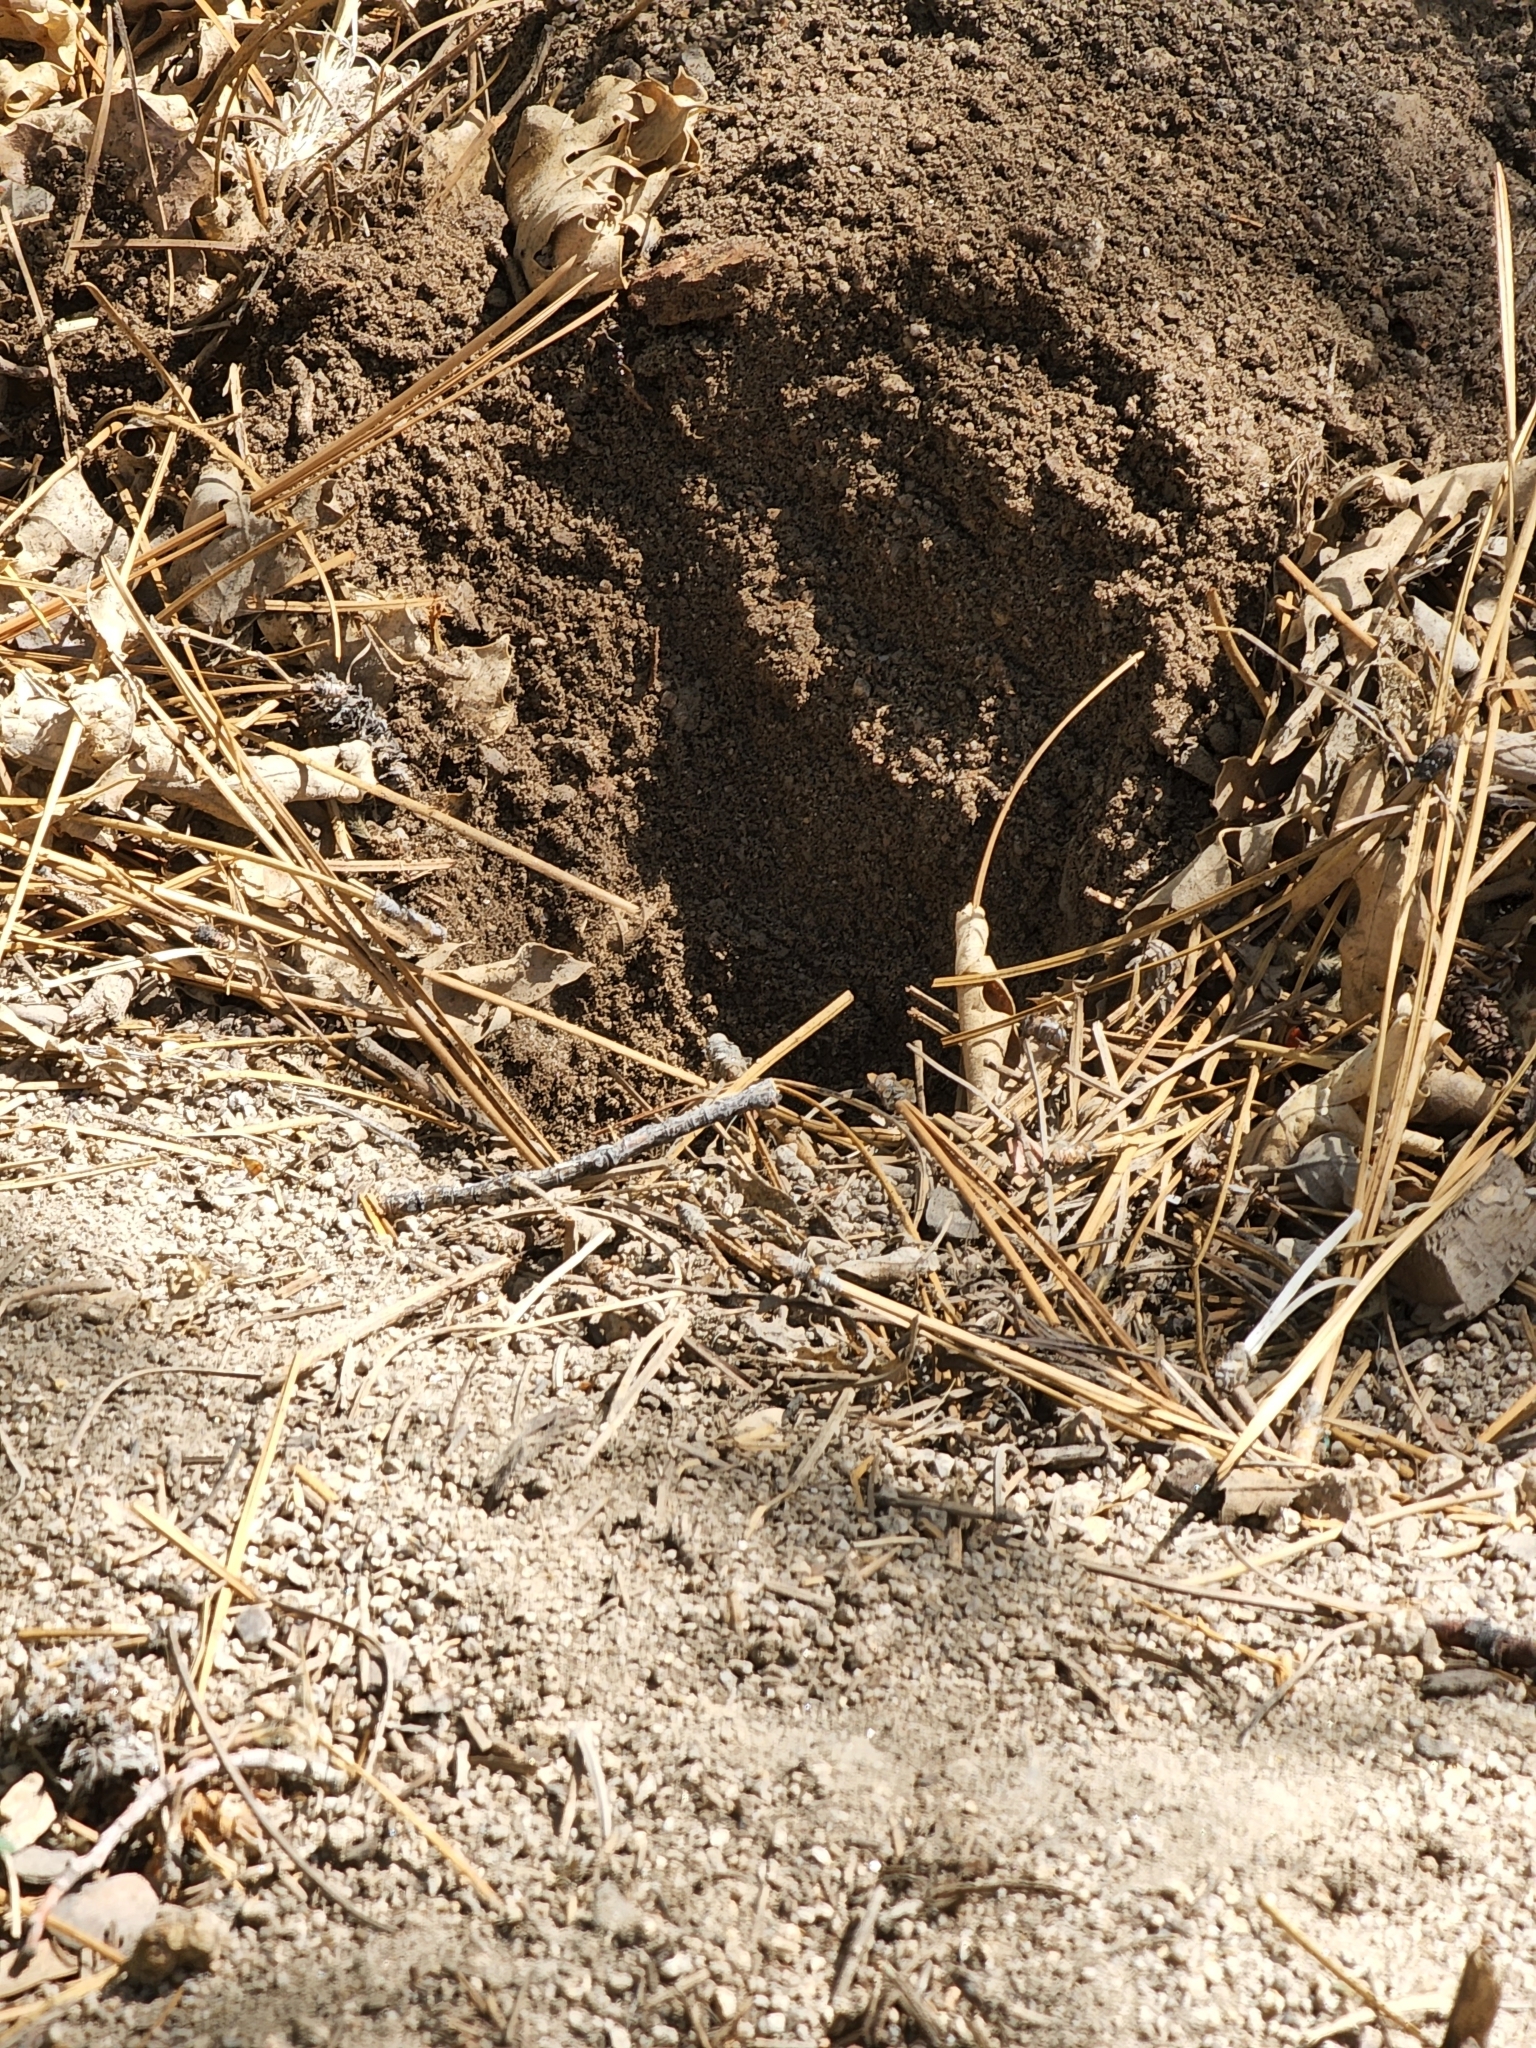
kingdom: Animalia
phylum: Chordata
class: Mammalia
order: Rodentia
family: Geomyidae
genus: Thomomys
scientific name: Thomomys bottae
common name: Botta's pocket gopher
